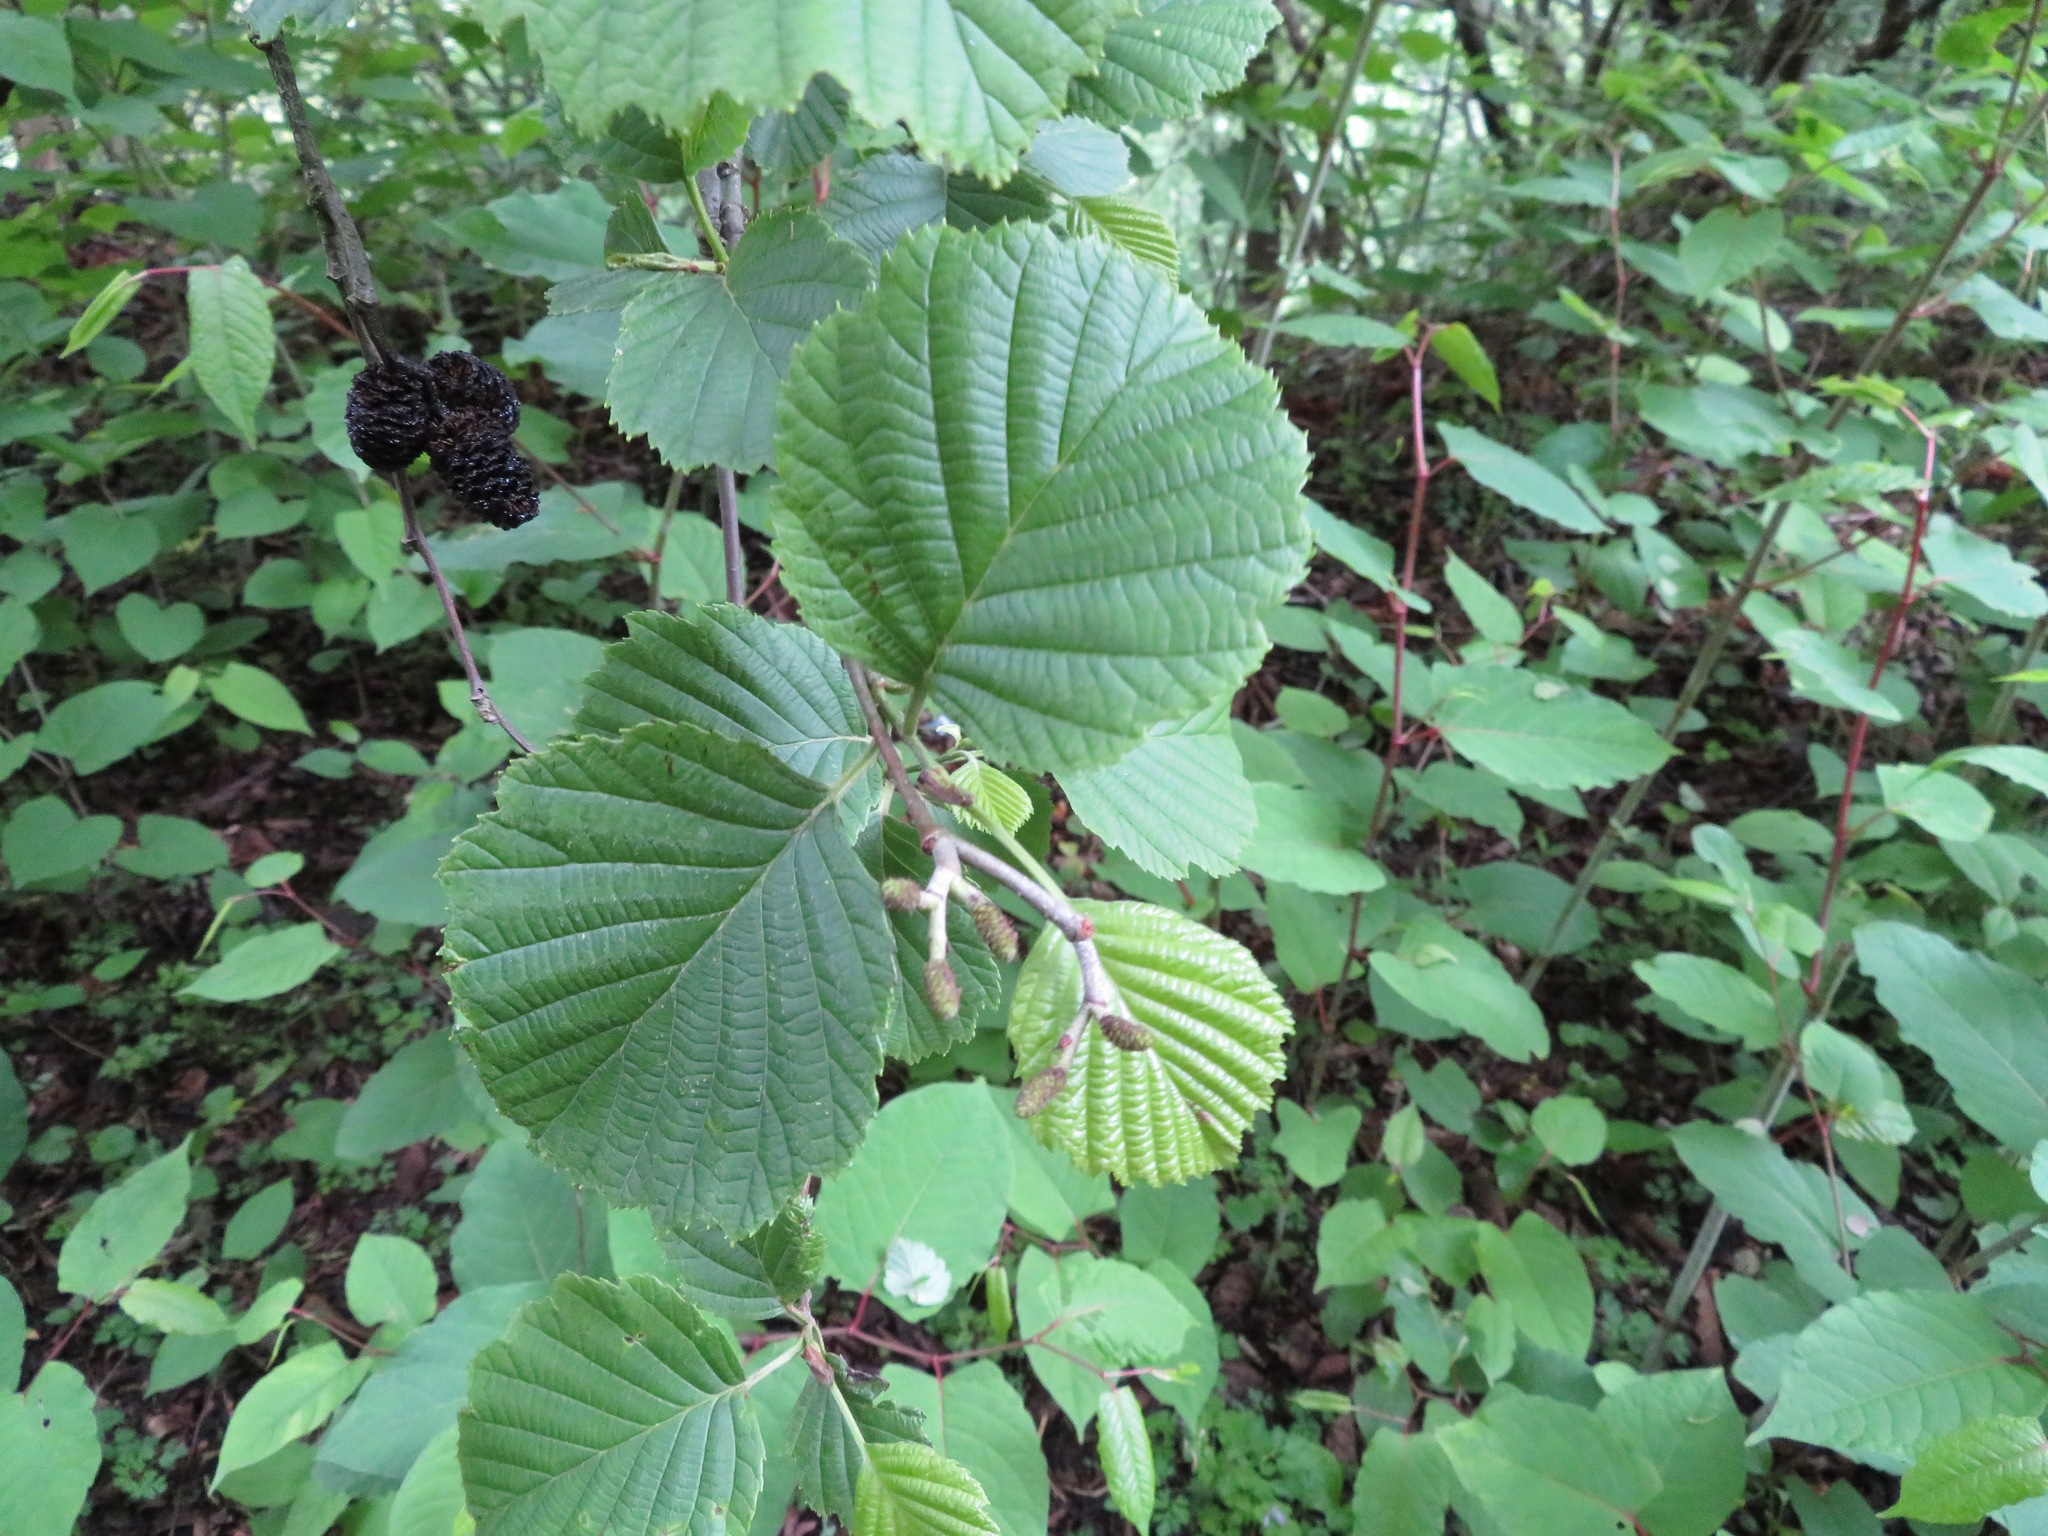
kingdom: Plantae
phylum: Tracheophyta
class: Magnoliopsida
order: Fagales
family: Betulaceae
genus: Alnus
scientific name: Alnus hirsuta
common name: Manchurian alder
